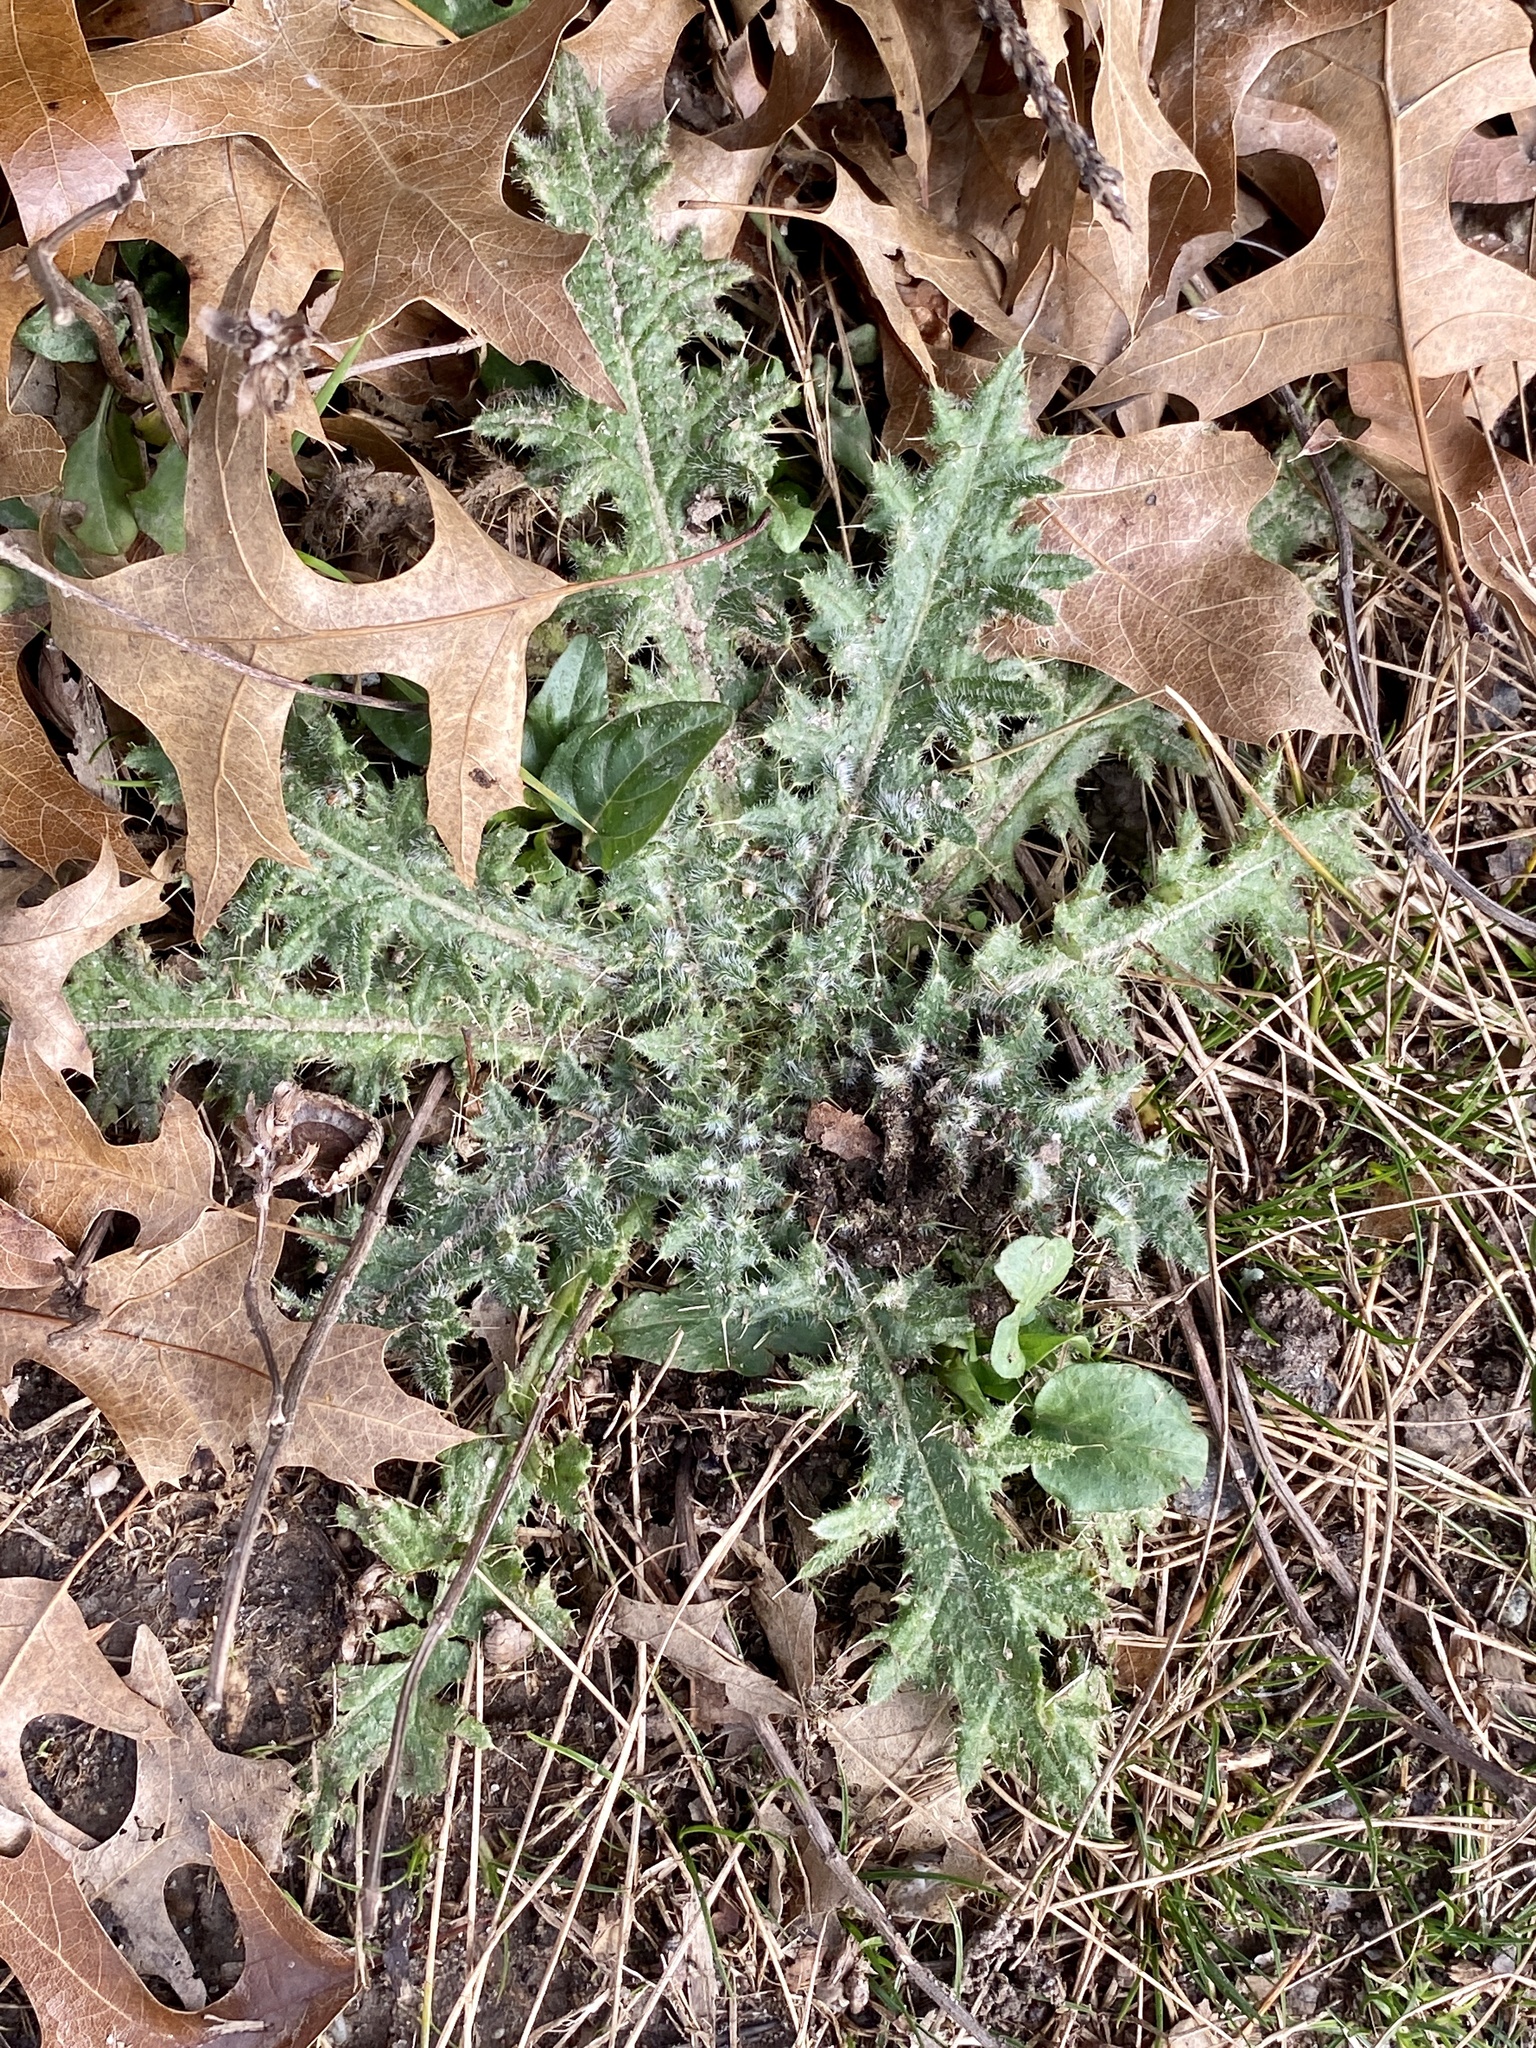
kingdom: Plantae
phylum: Tracheophyta
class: Magnoliopsida
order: Asterales
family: Asteraceae
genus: Cirsium
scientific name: Cirsium vulgare
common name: Bull thistle
